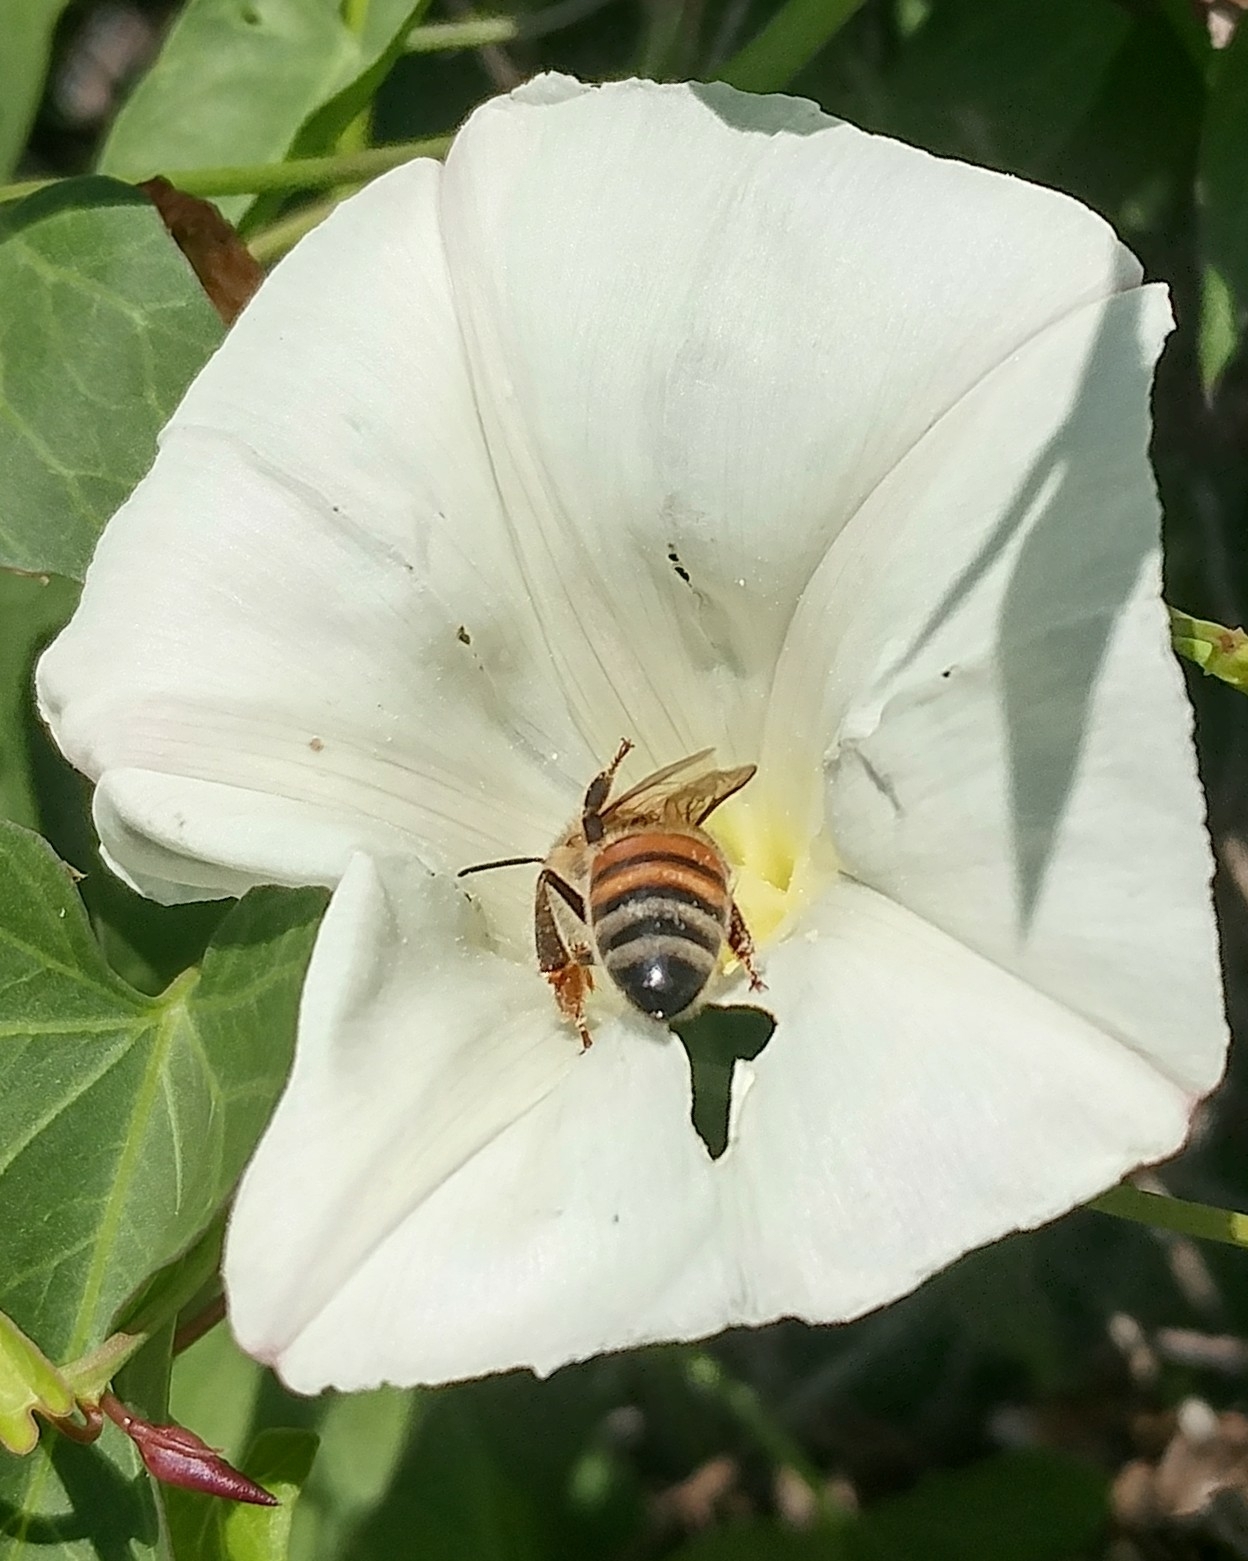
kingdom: Animalia
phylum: Arthropoda
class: Insecta
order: Hymenoptera
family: Apidae
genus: Apis
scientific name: Apis mellifera
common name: Honey bee
